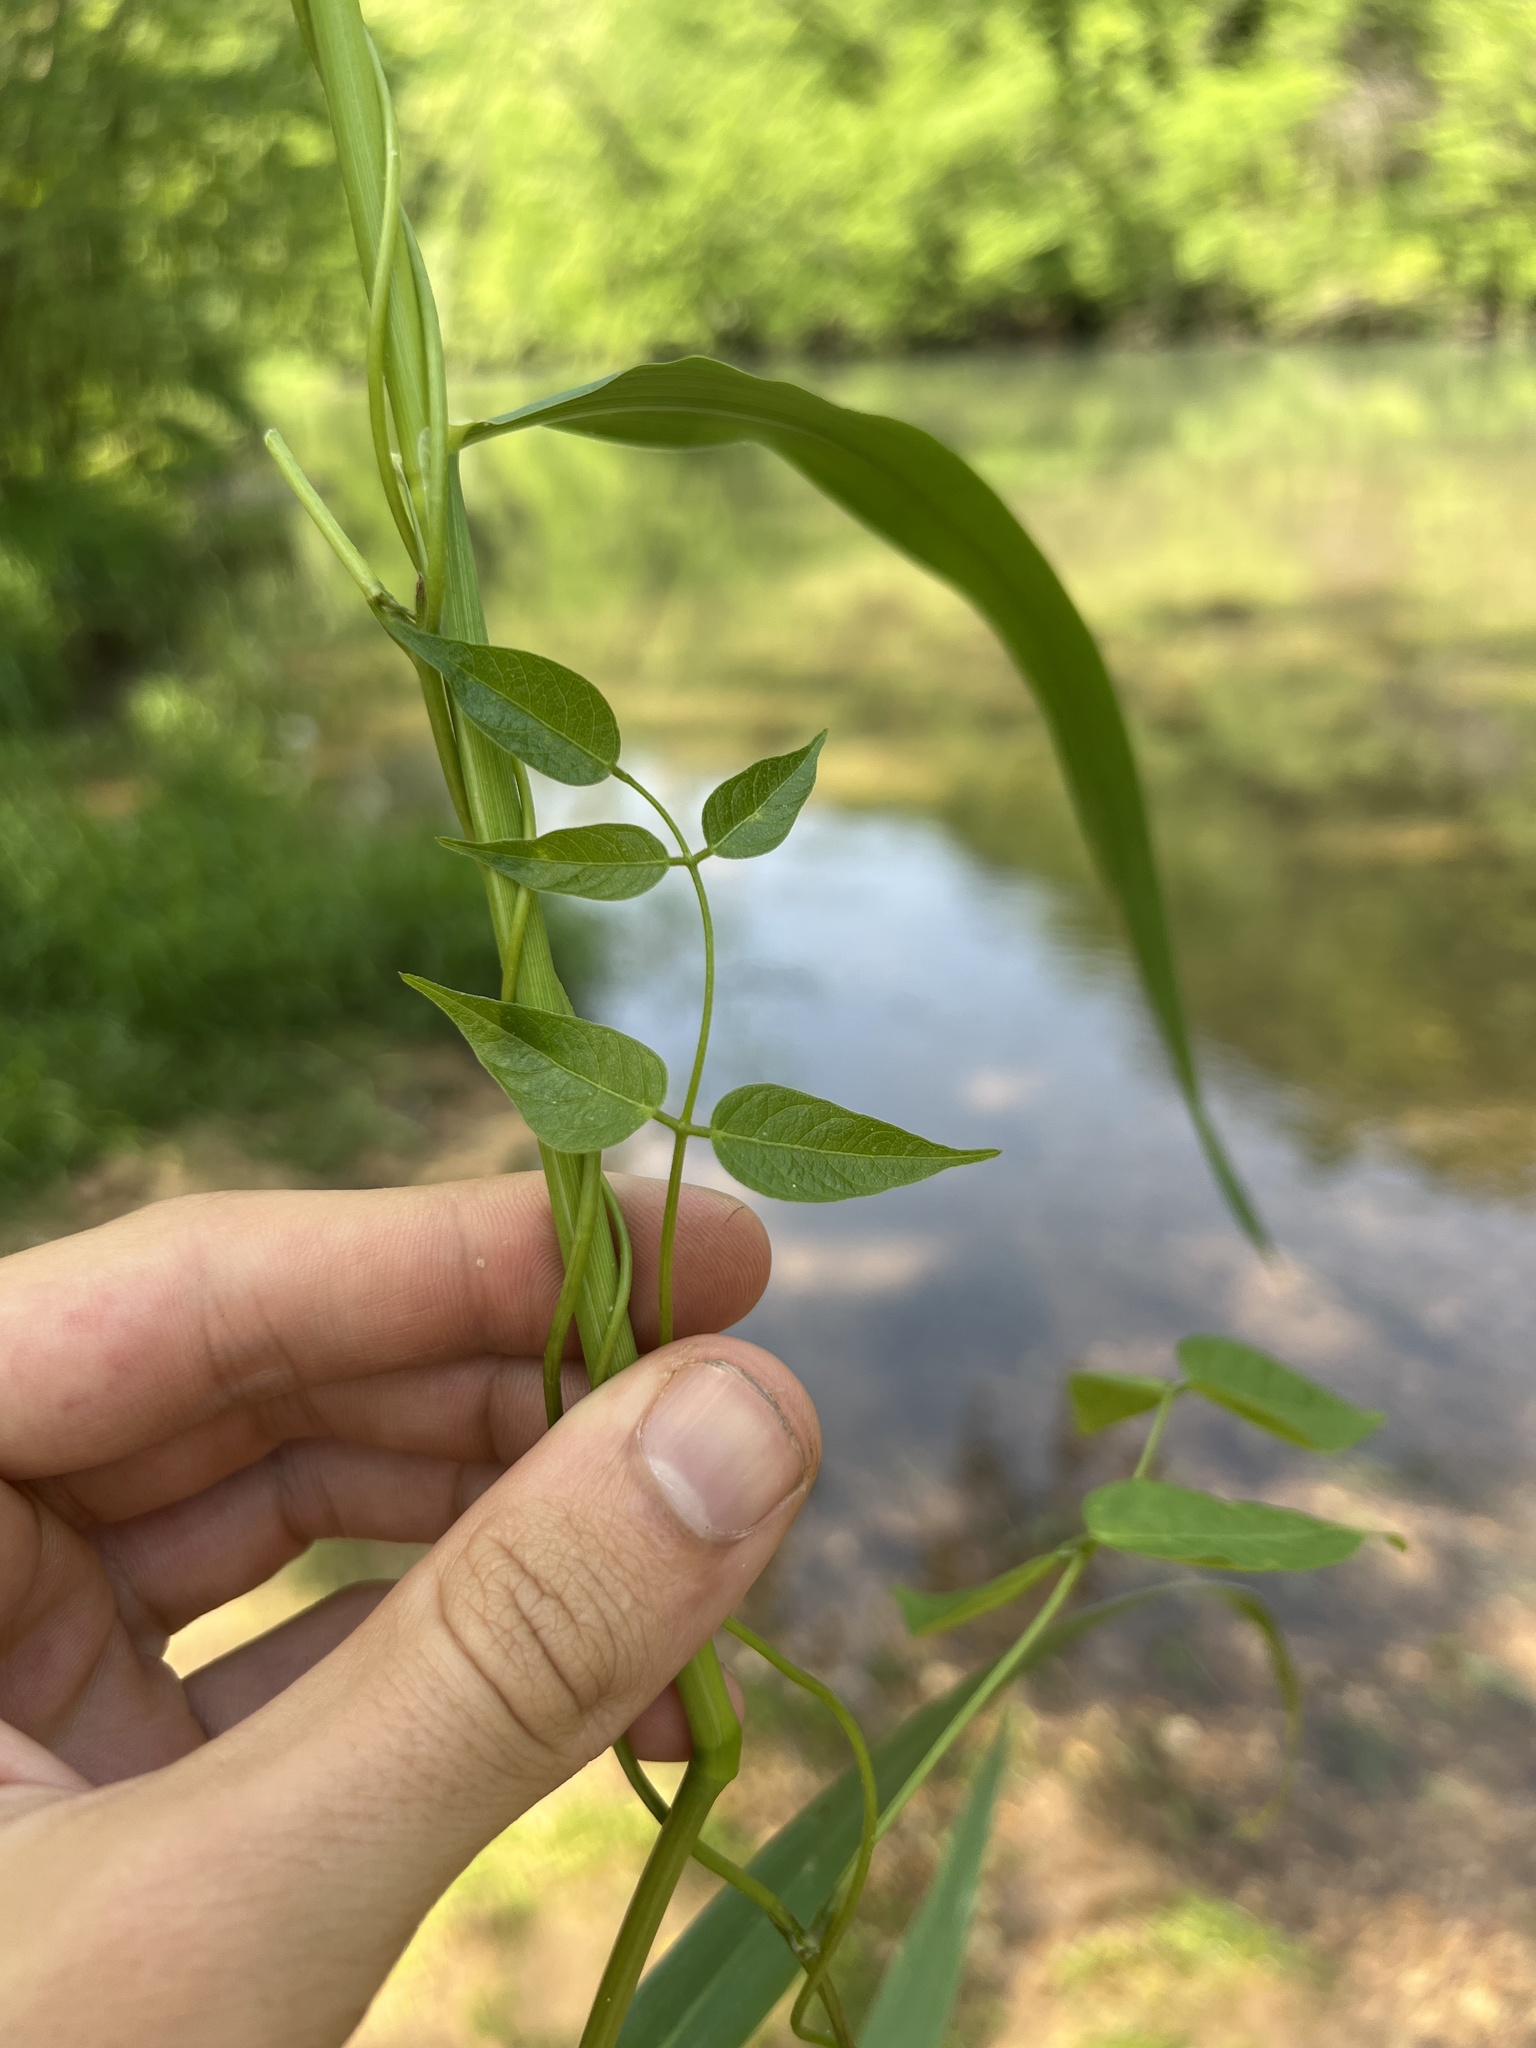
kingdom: Plantae
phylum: Tracheophyta
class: Magnoliopsida
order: Fabales
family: Fabaceae
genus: Apios
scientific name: Apios americana
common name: American potato-bean
